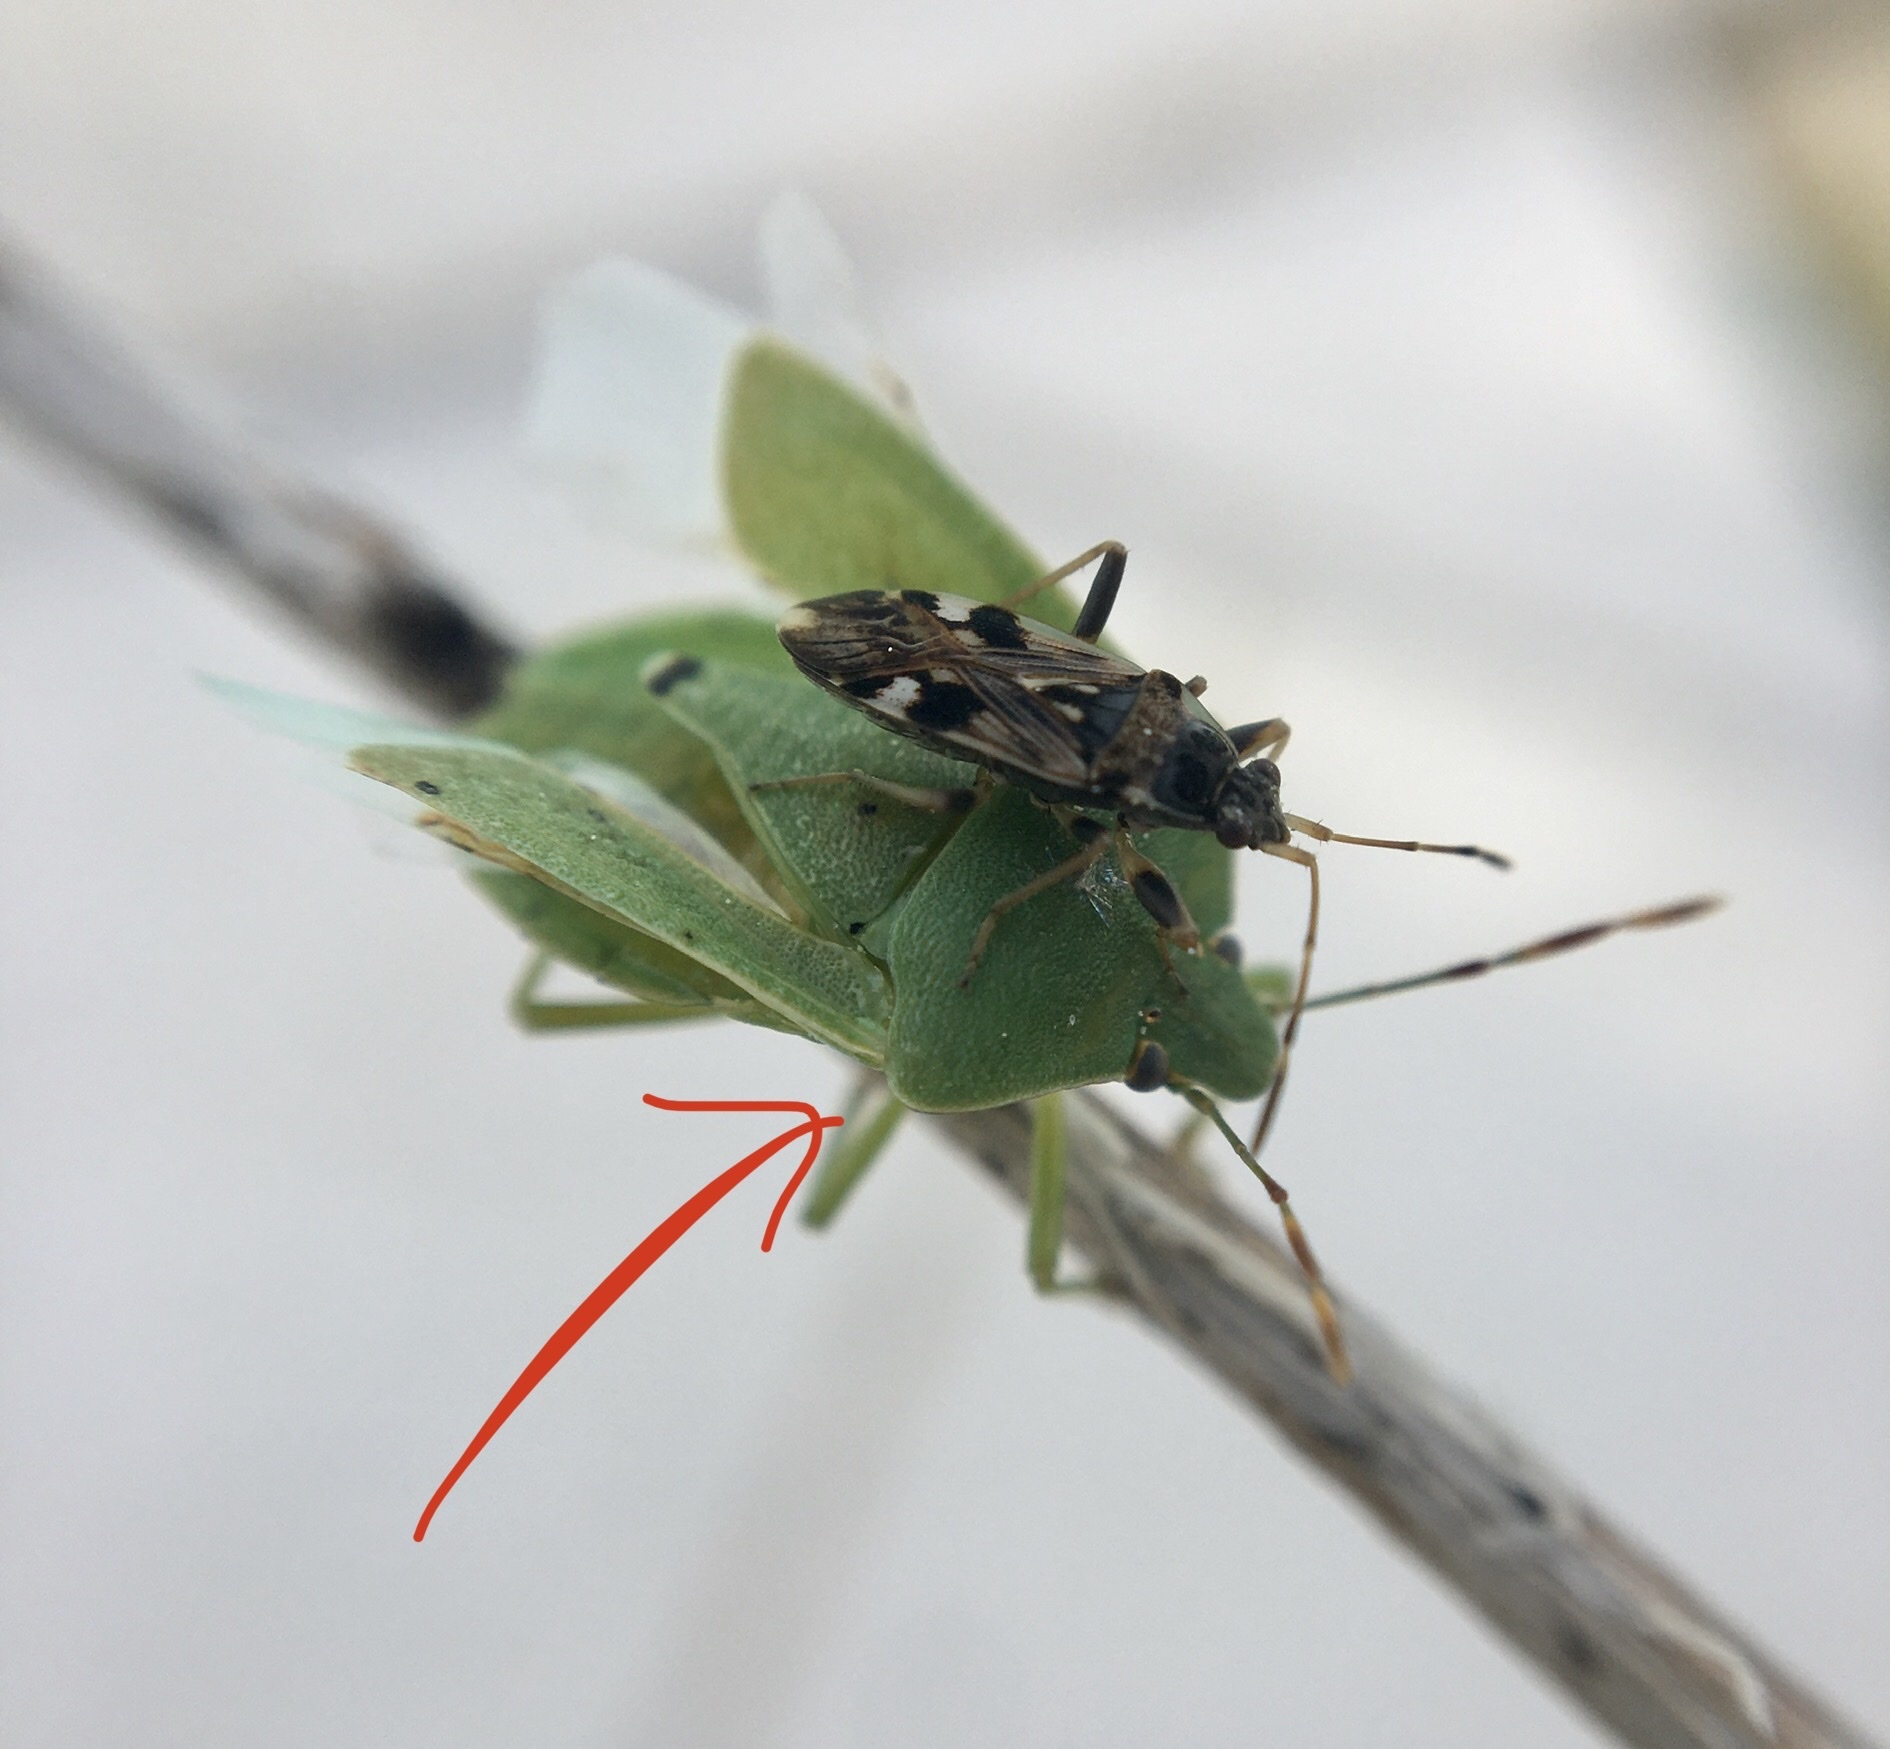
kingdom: Animalia
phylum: Arthropoda
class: Insecta
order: Hemiptera
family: Pentatomidae
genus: Nezara
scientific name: Nezara viridula
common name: Southern green stink bug
